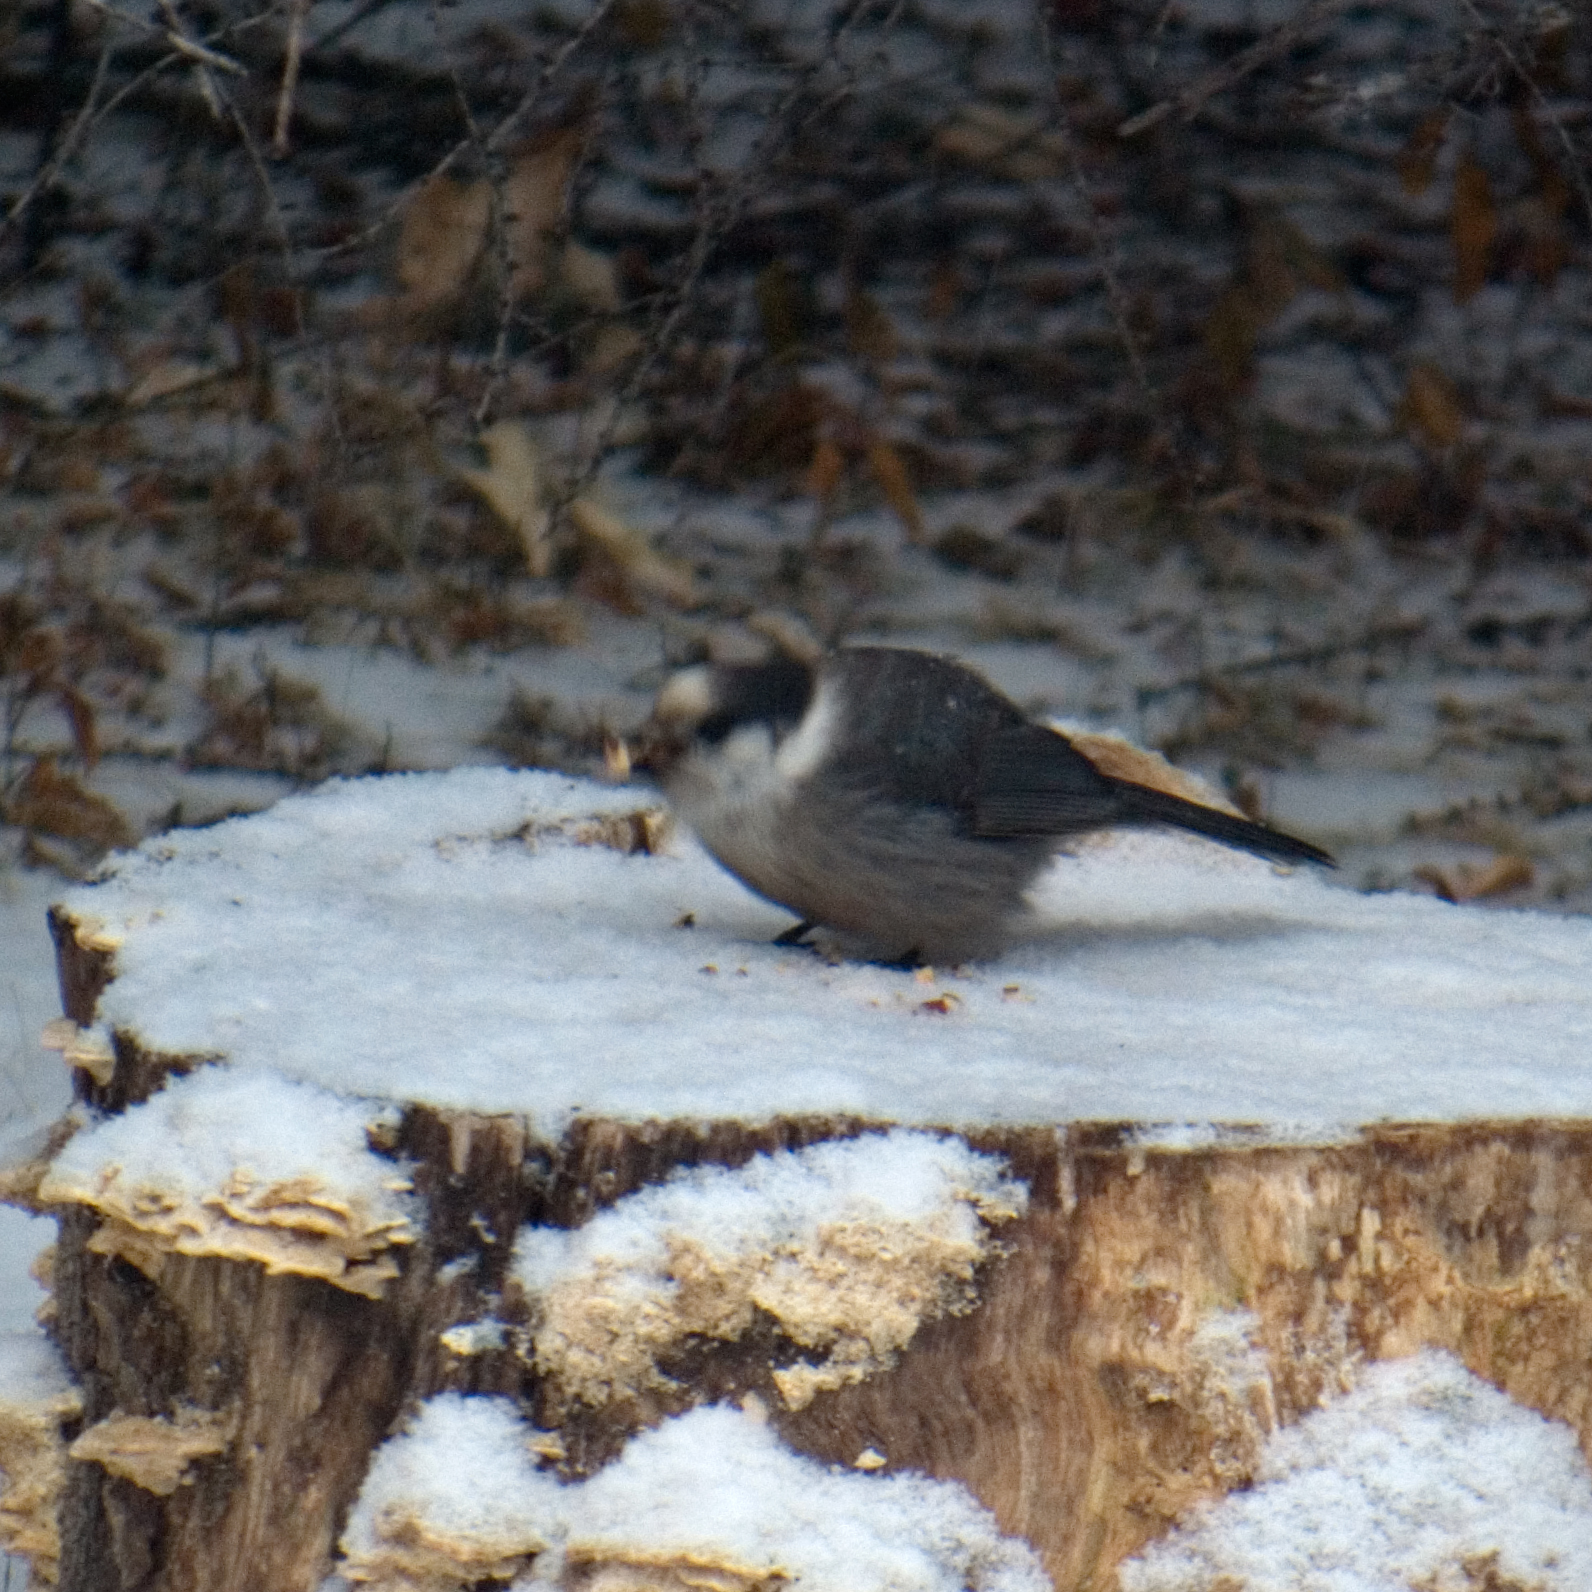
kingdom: Animalia
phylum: Chordata
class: Aves
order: Passeriformes
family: Corvidae
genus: Perisoreus
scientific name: Perisoreus canadensis
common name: Gray jay
